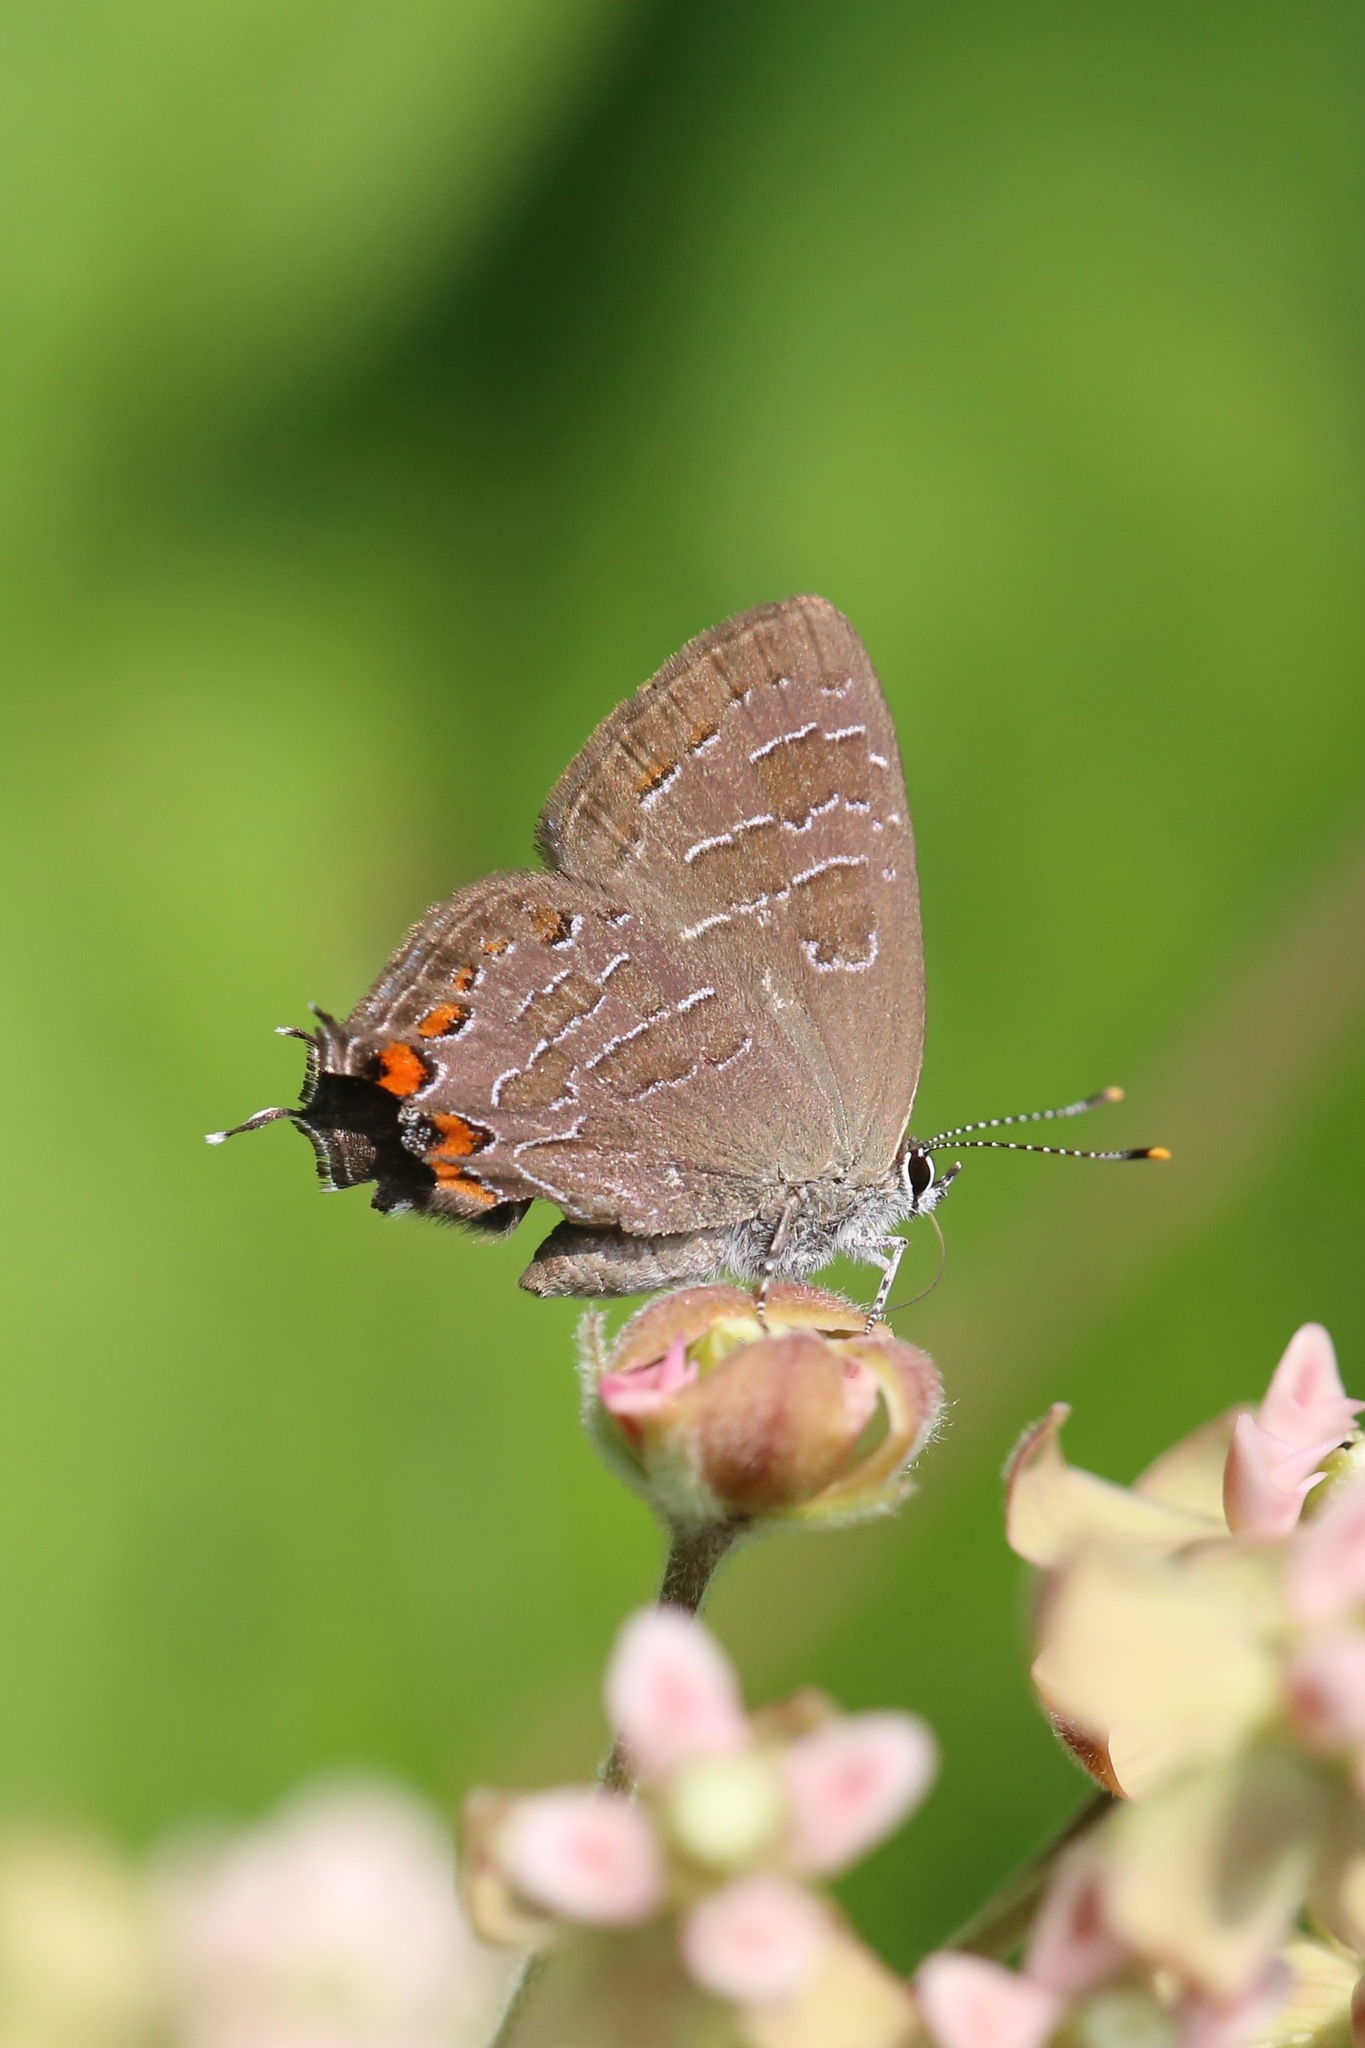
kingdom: Animalia
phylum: Arthropoda
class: Insecta
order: Lepidoptera
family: Lycaenidae
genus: Satyrium
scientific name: Satyrium liparops
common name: Striped hairstreak
